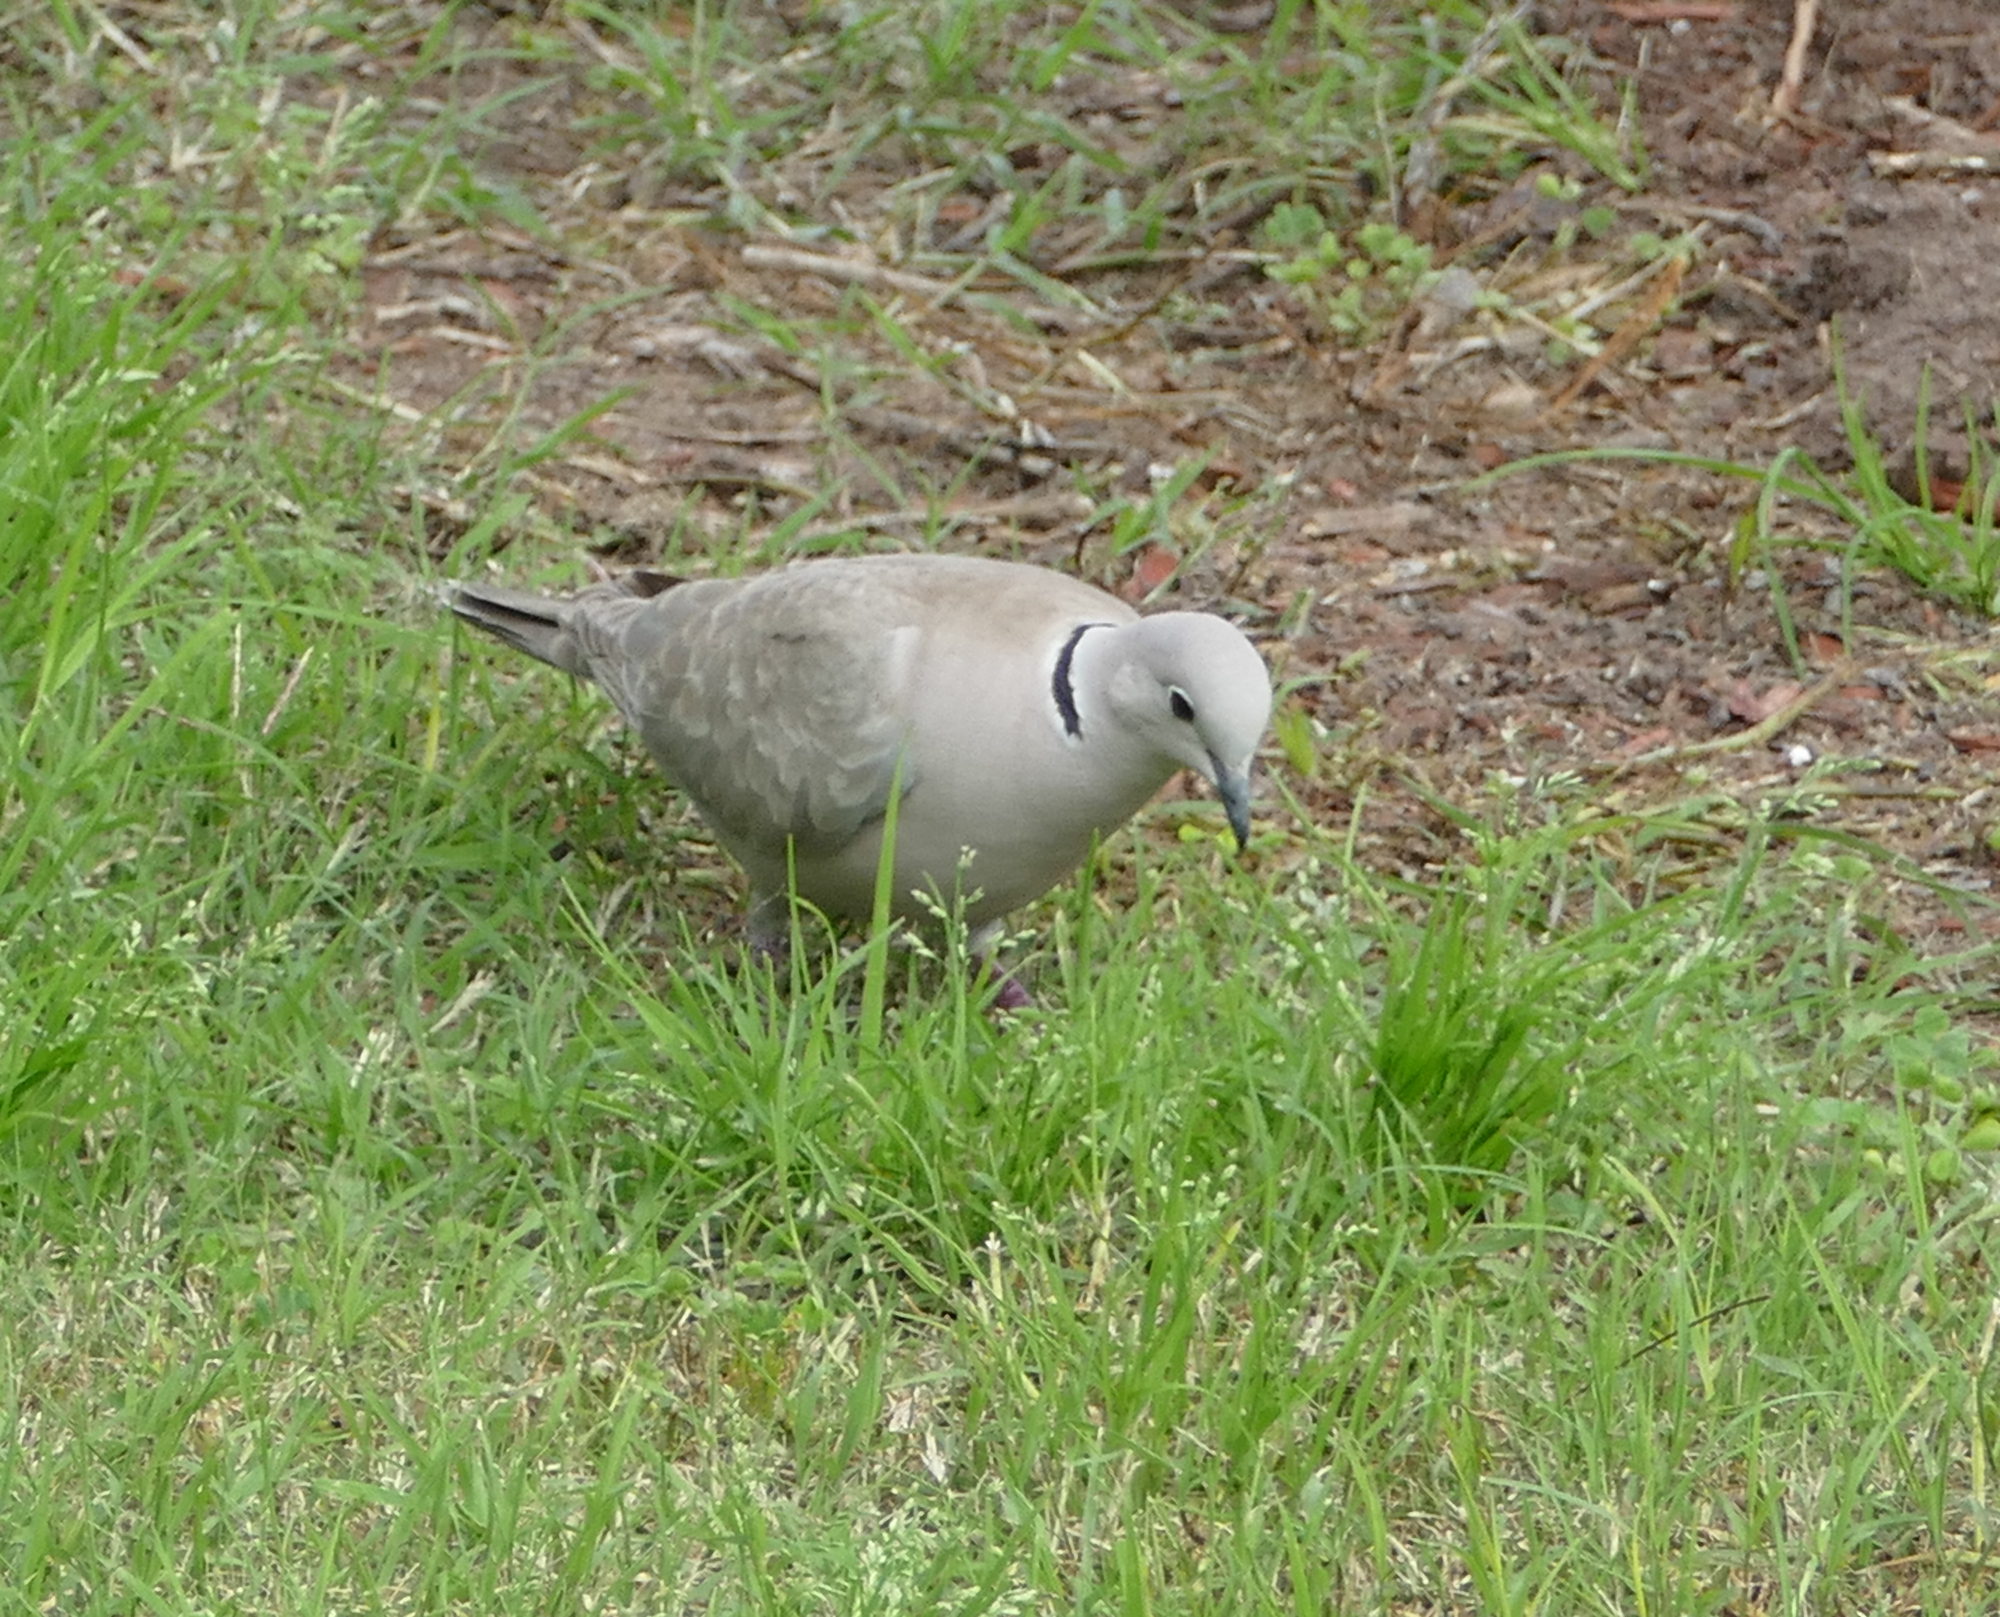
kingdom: Animalia
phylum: Chordata
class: Aves
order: Columbiformes
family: Columbidae
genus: Streptopelia
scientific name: Streptopelia decaocto
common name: Eurasian collared dove
